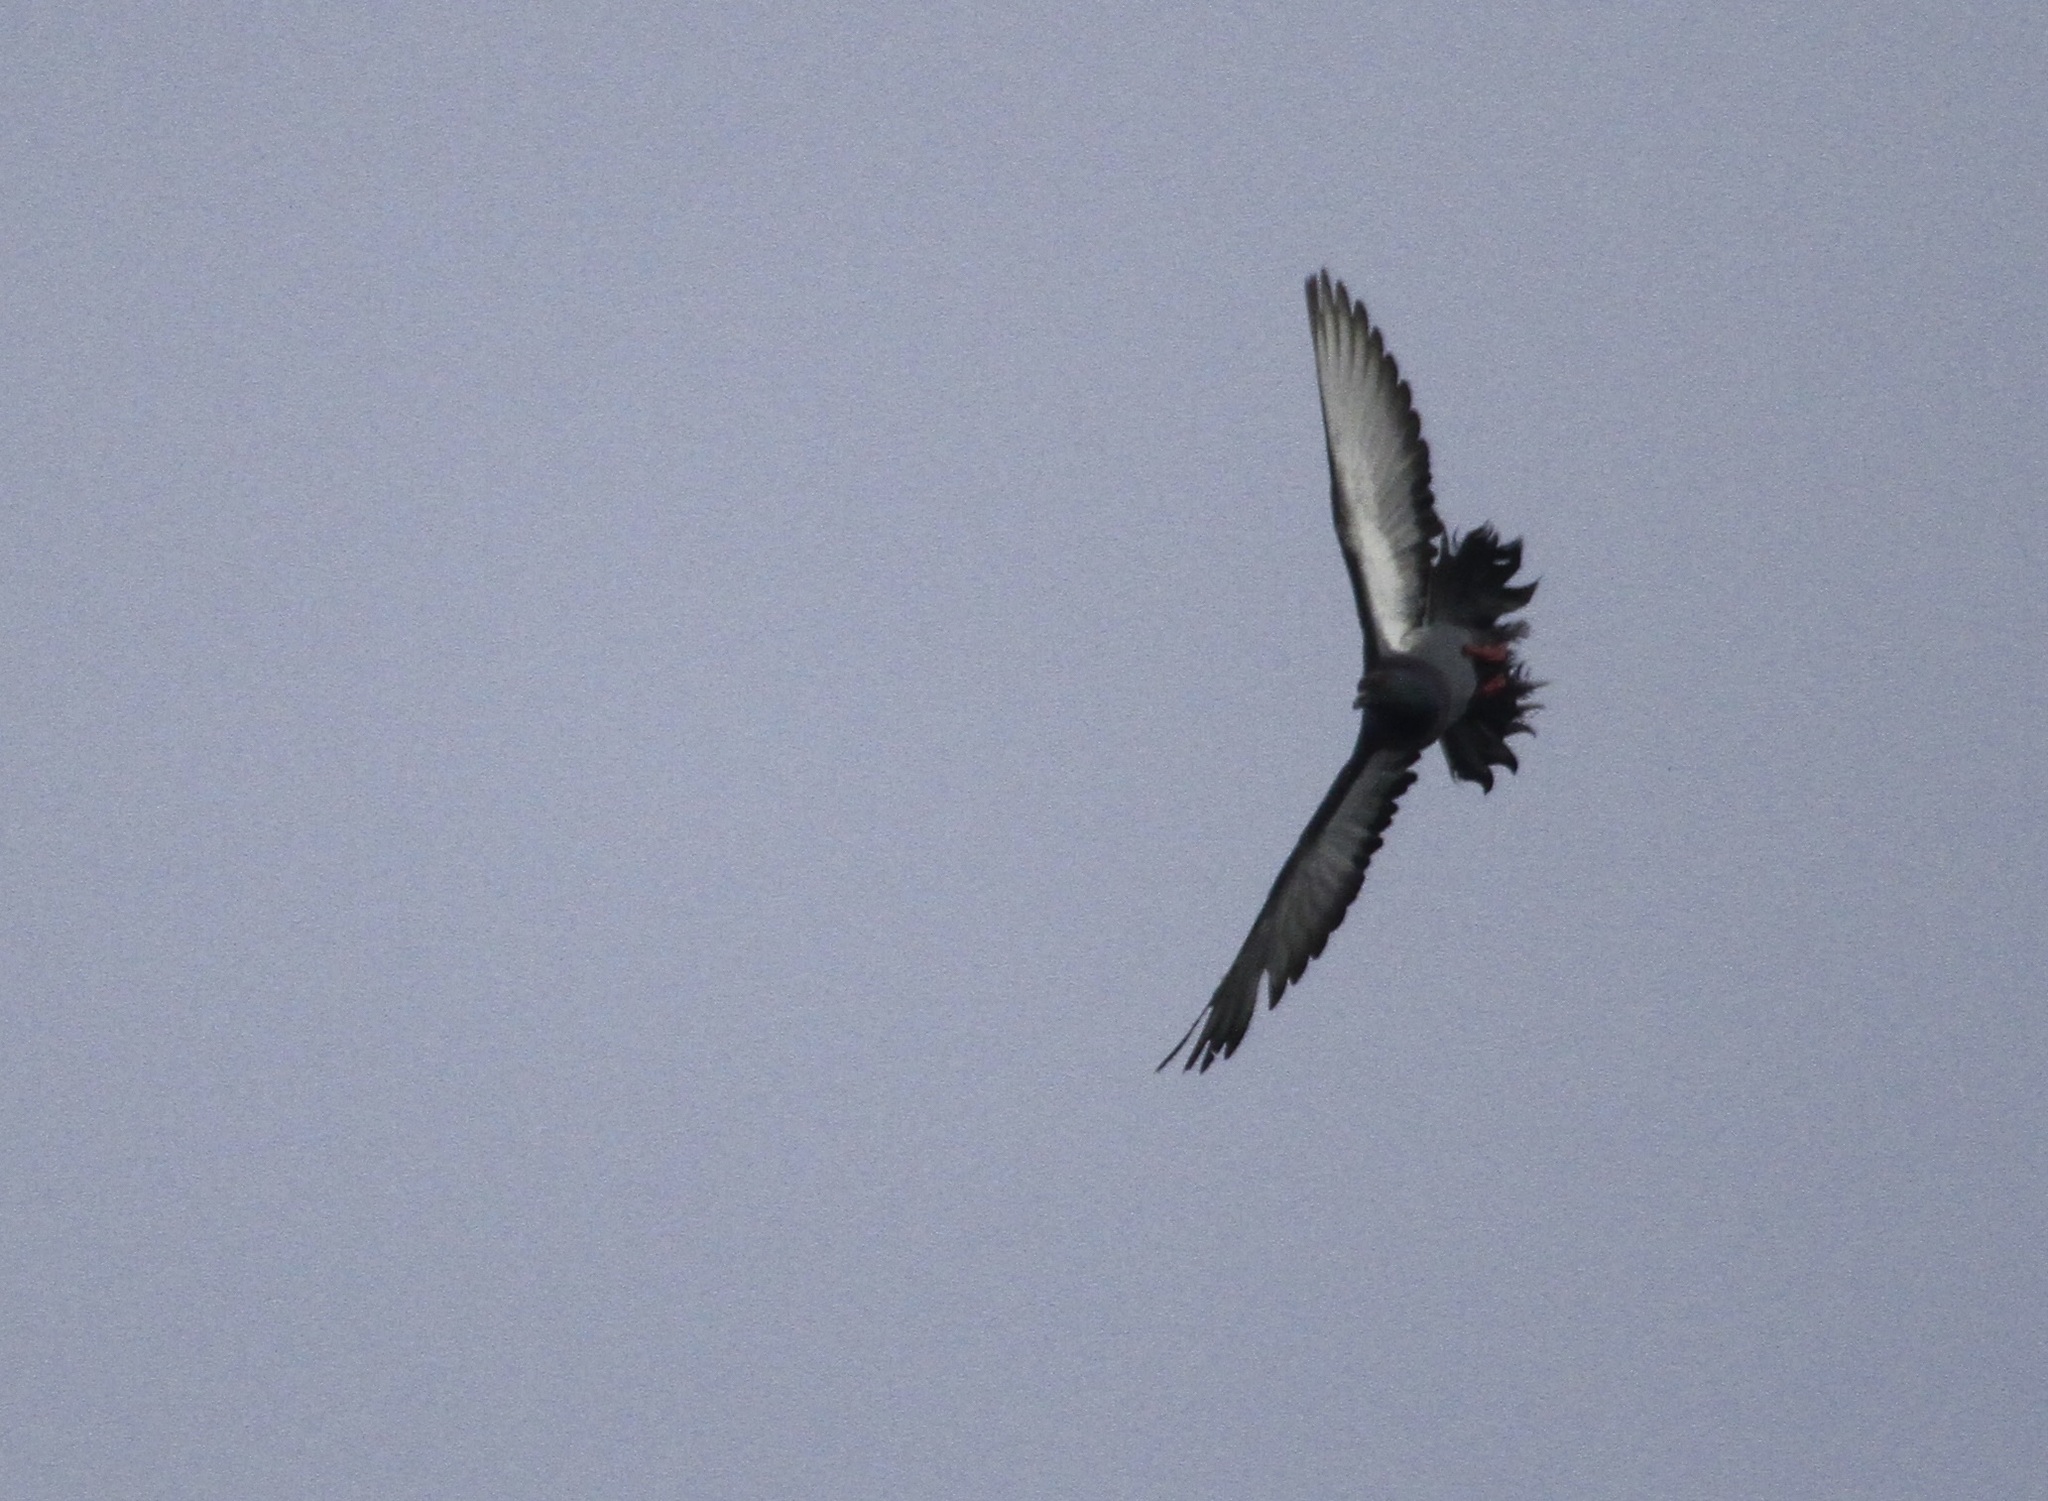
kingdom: Animalia
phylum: Chordata
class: Aves
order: Columbiformes
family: Columbidae
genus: Columba
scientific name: Columba livia
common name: Rock pigeon
